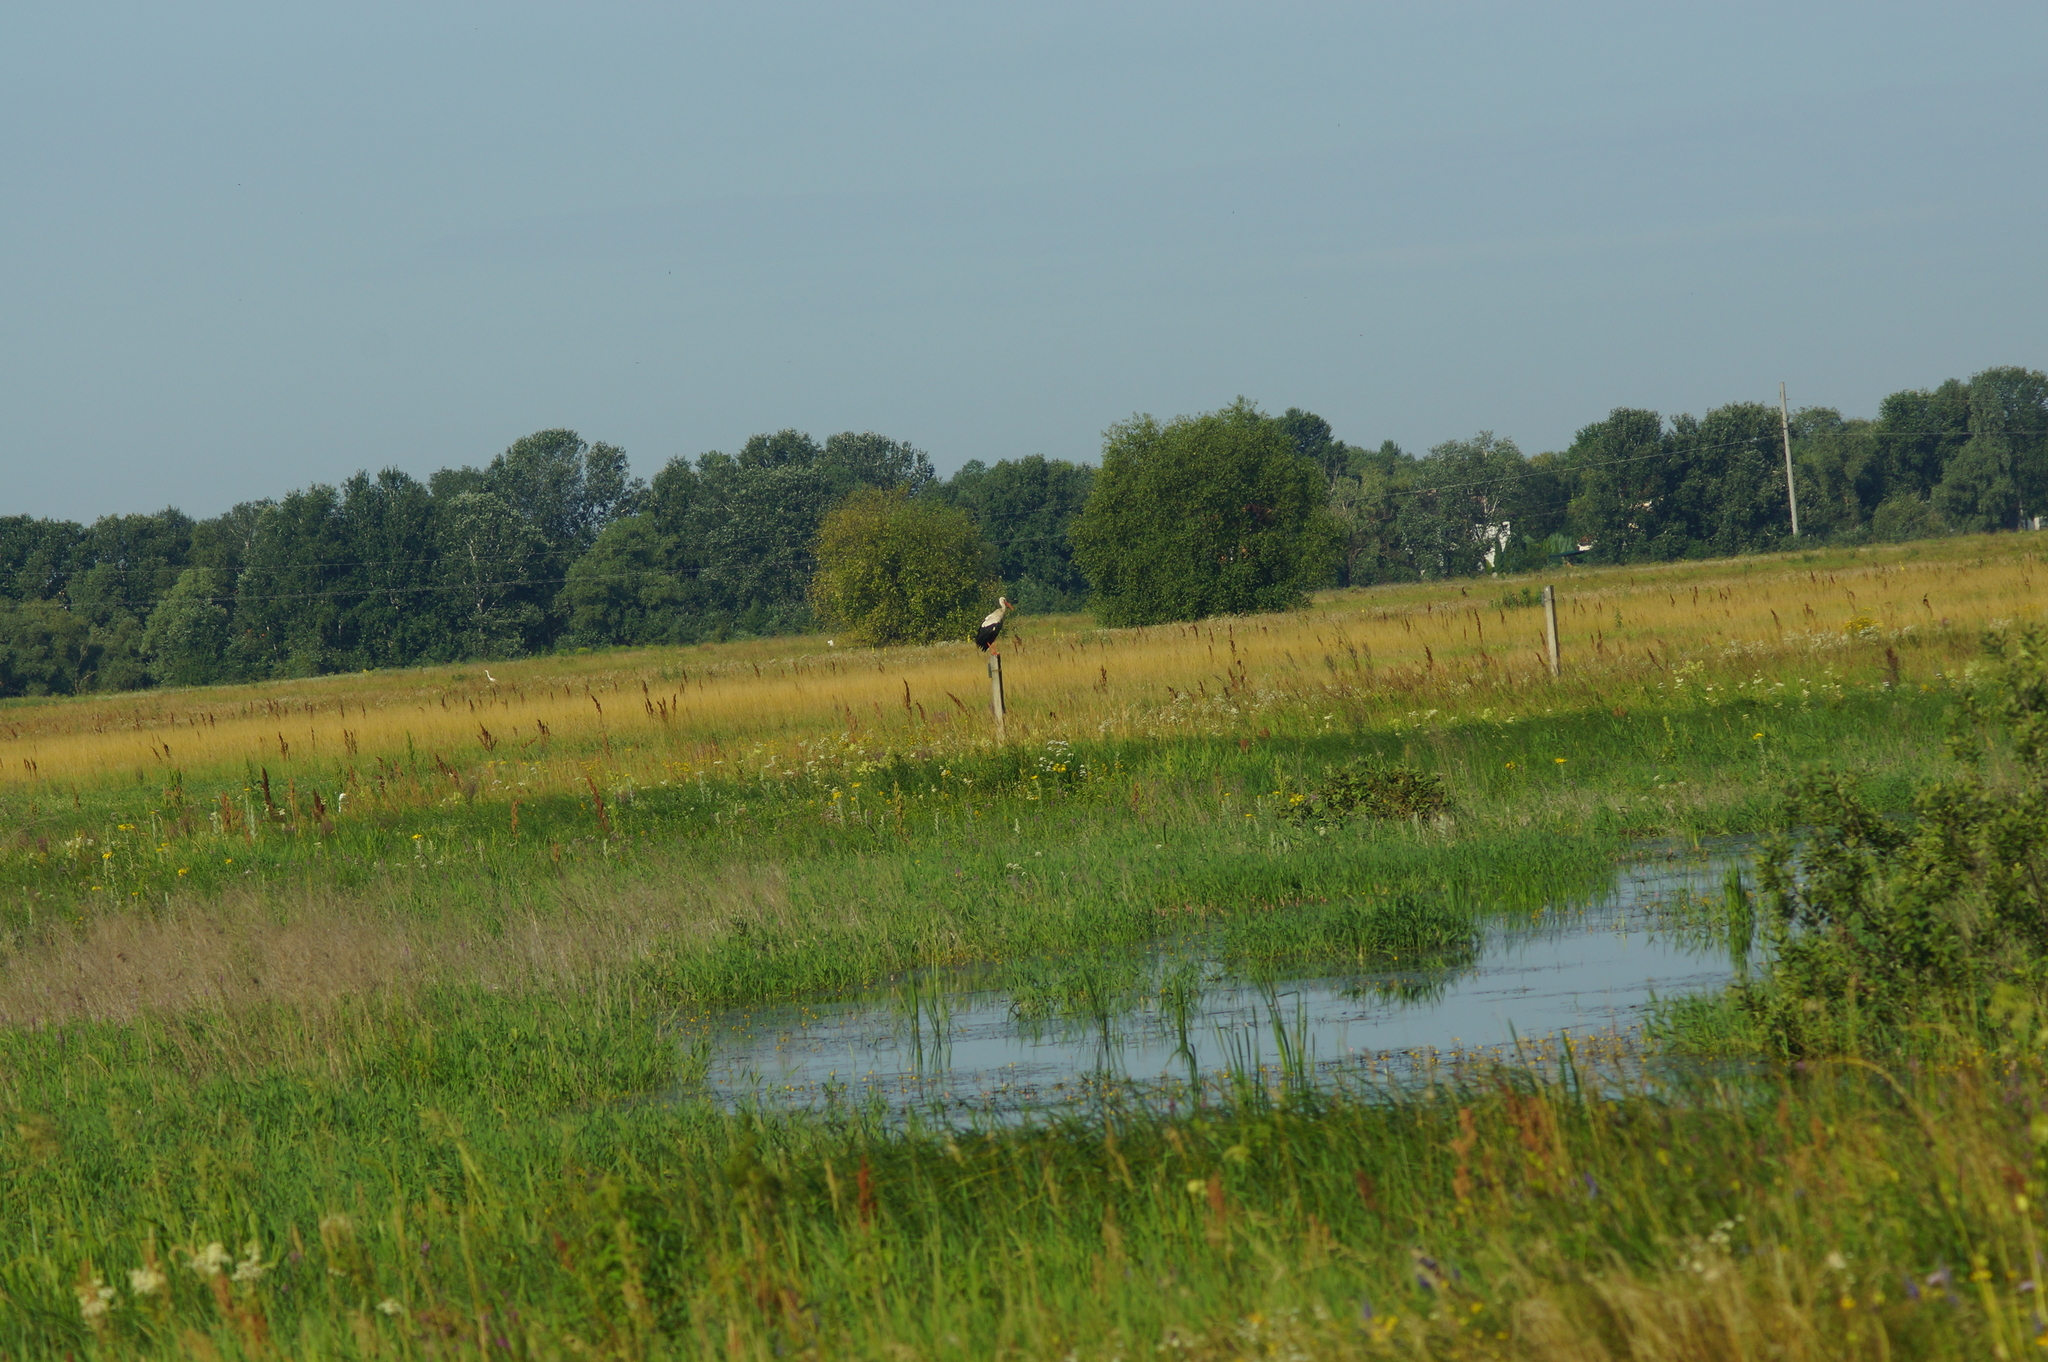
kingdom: Animalia
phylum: Chordata
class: Aves
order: Ciconiiformes
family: Ciconiidae
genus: Ciconia
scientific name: Ciconia ciconia
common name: White stork
